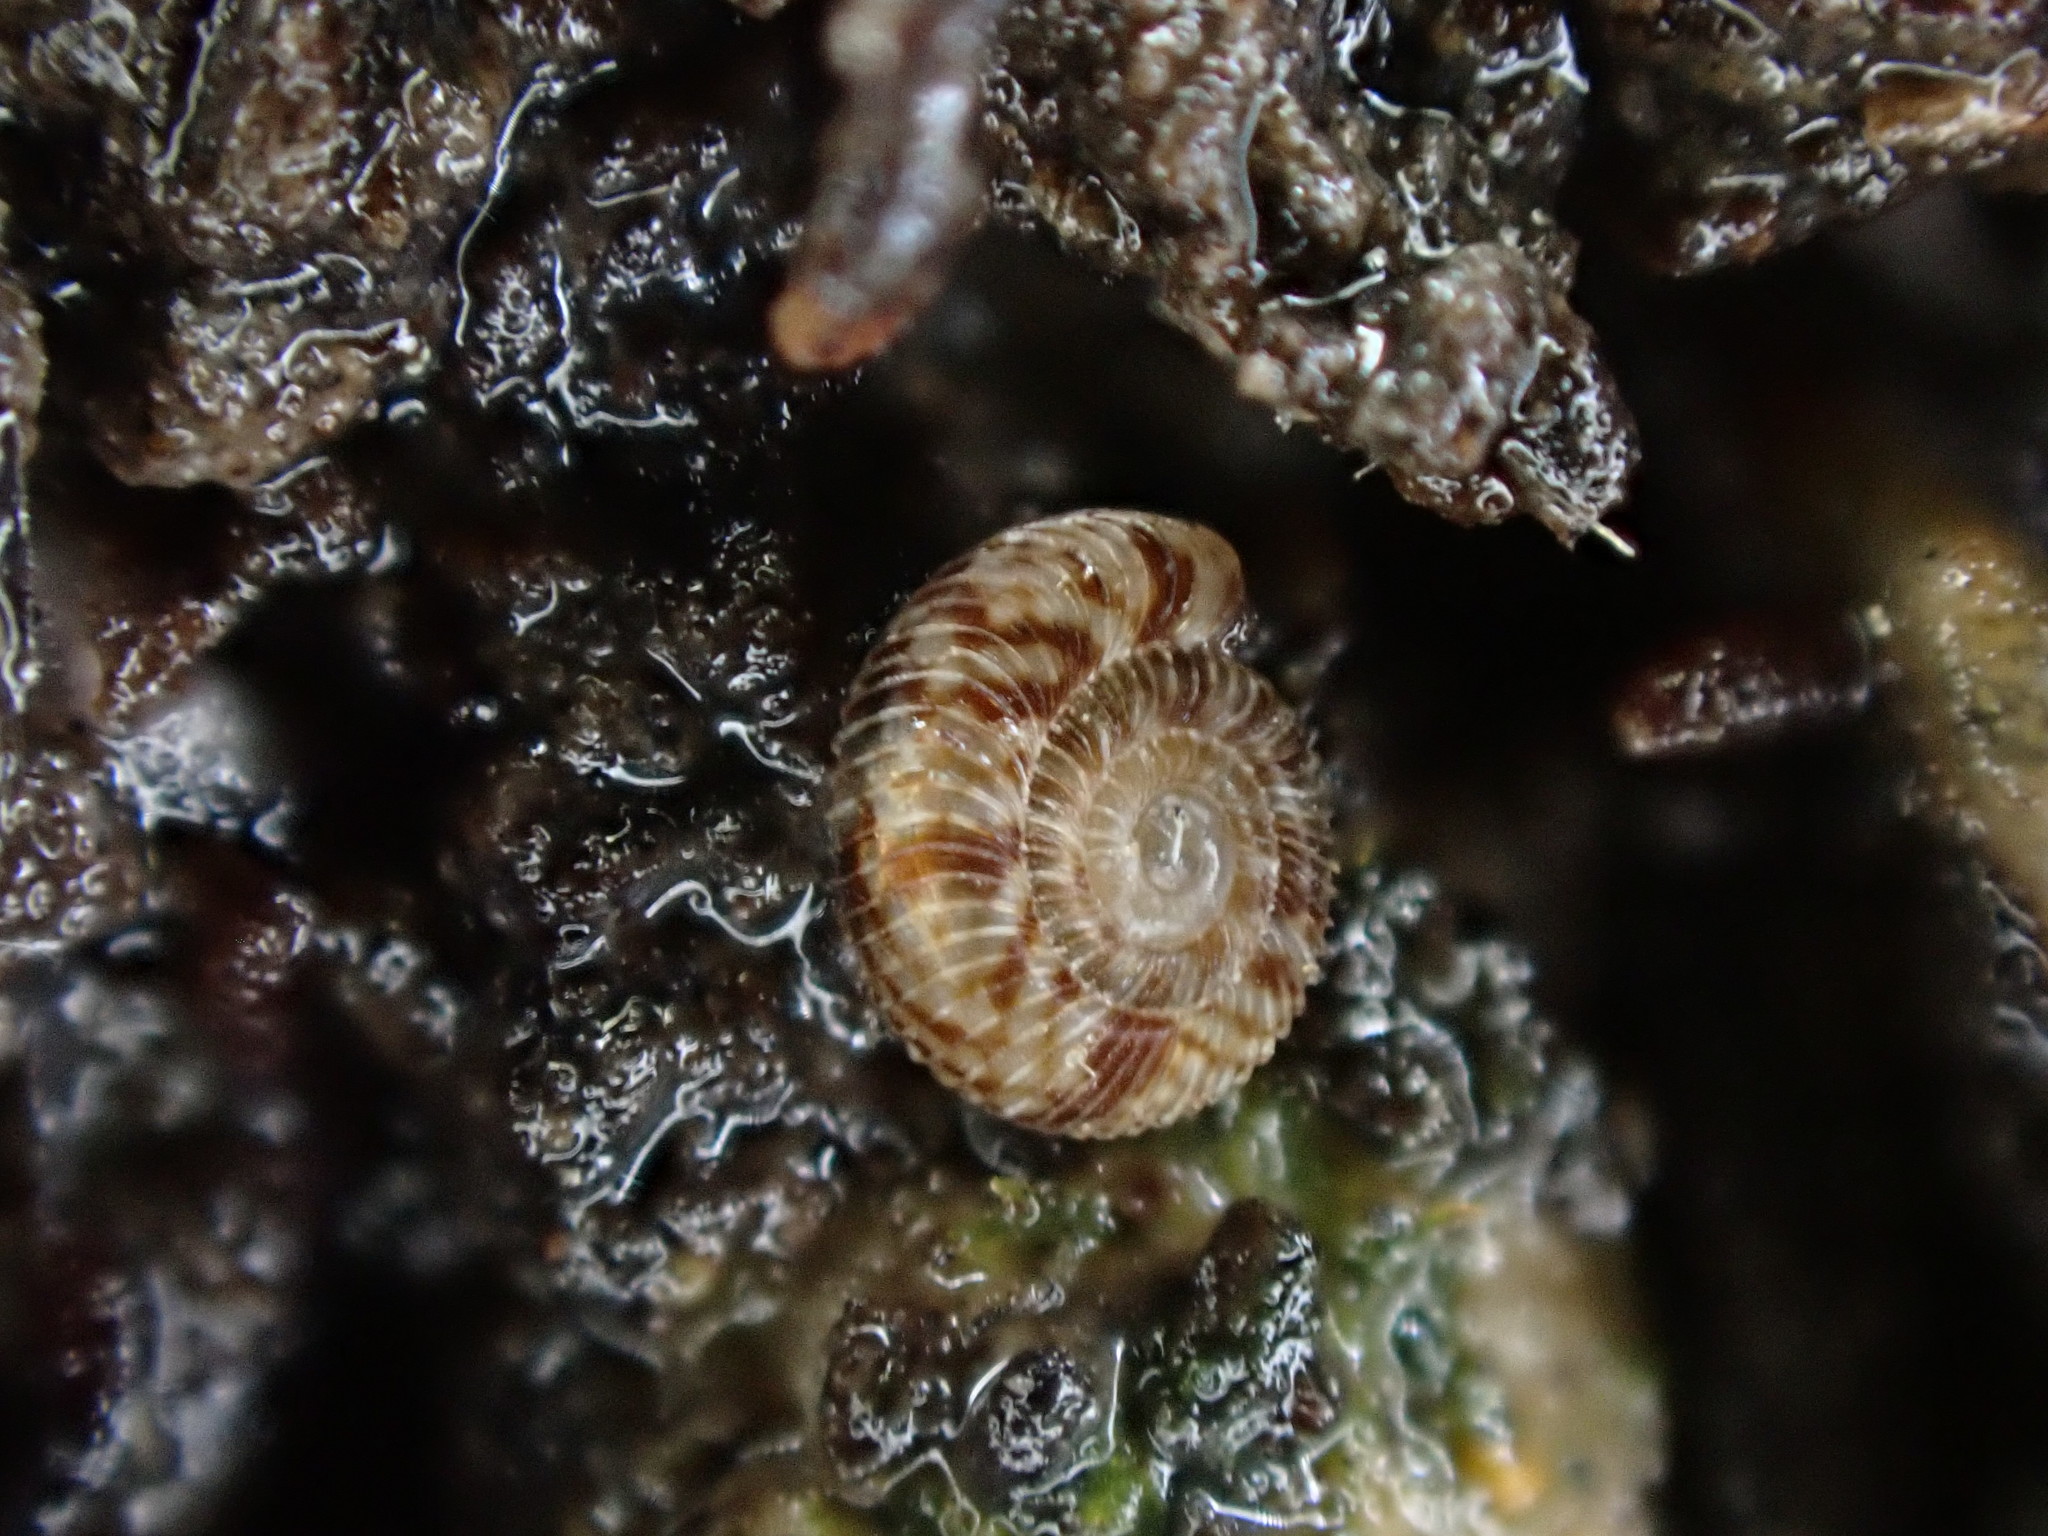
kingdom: Animalia
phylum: Mollusca
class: Gastropoda
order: Stylommatophora
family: Charopidae
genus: Cavellia
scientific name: Cavellia buccinella
